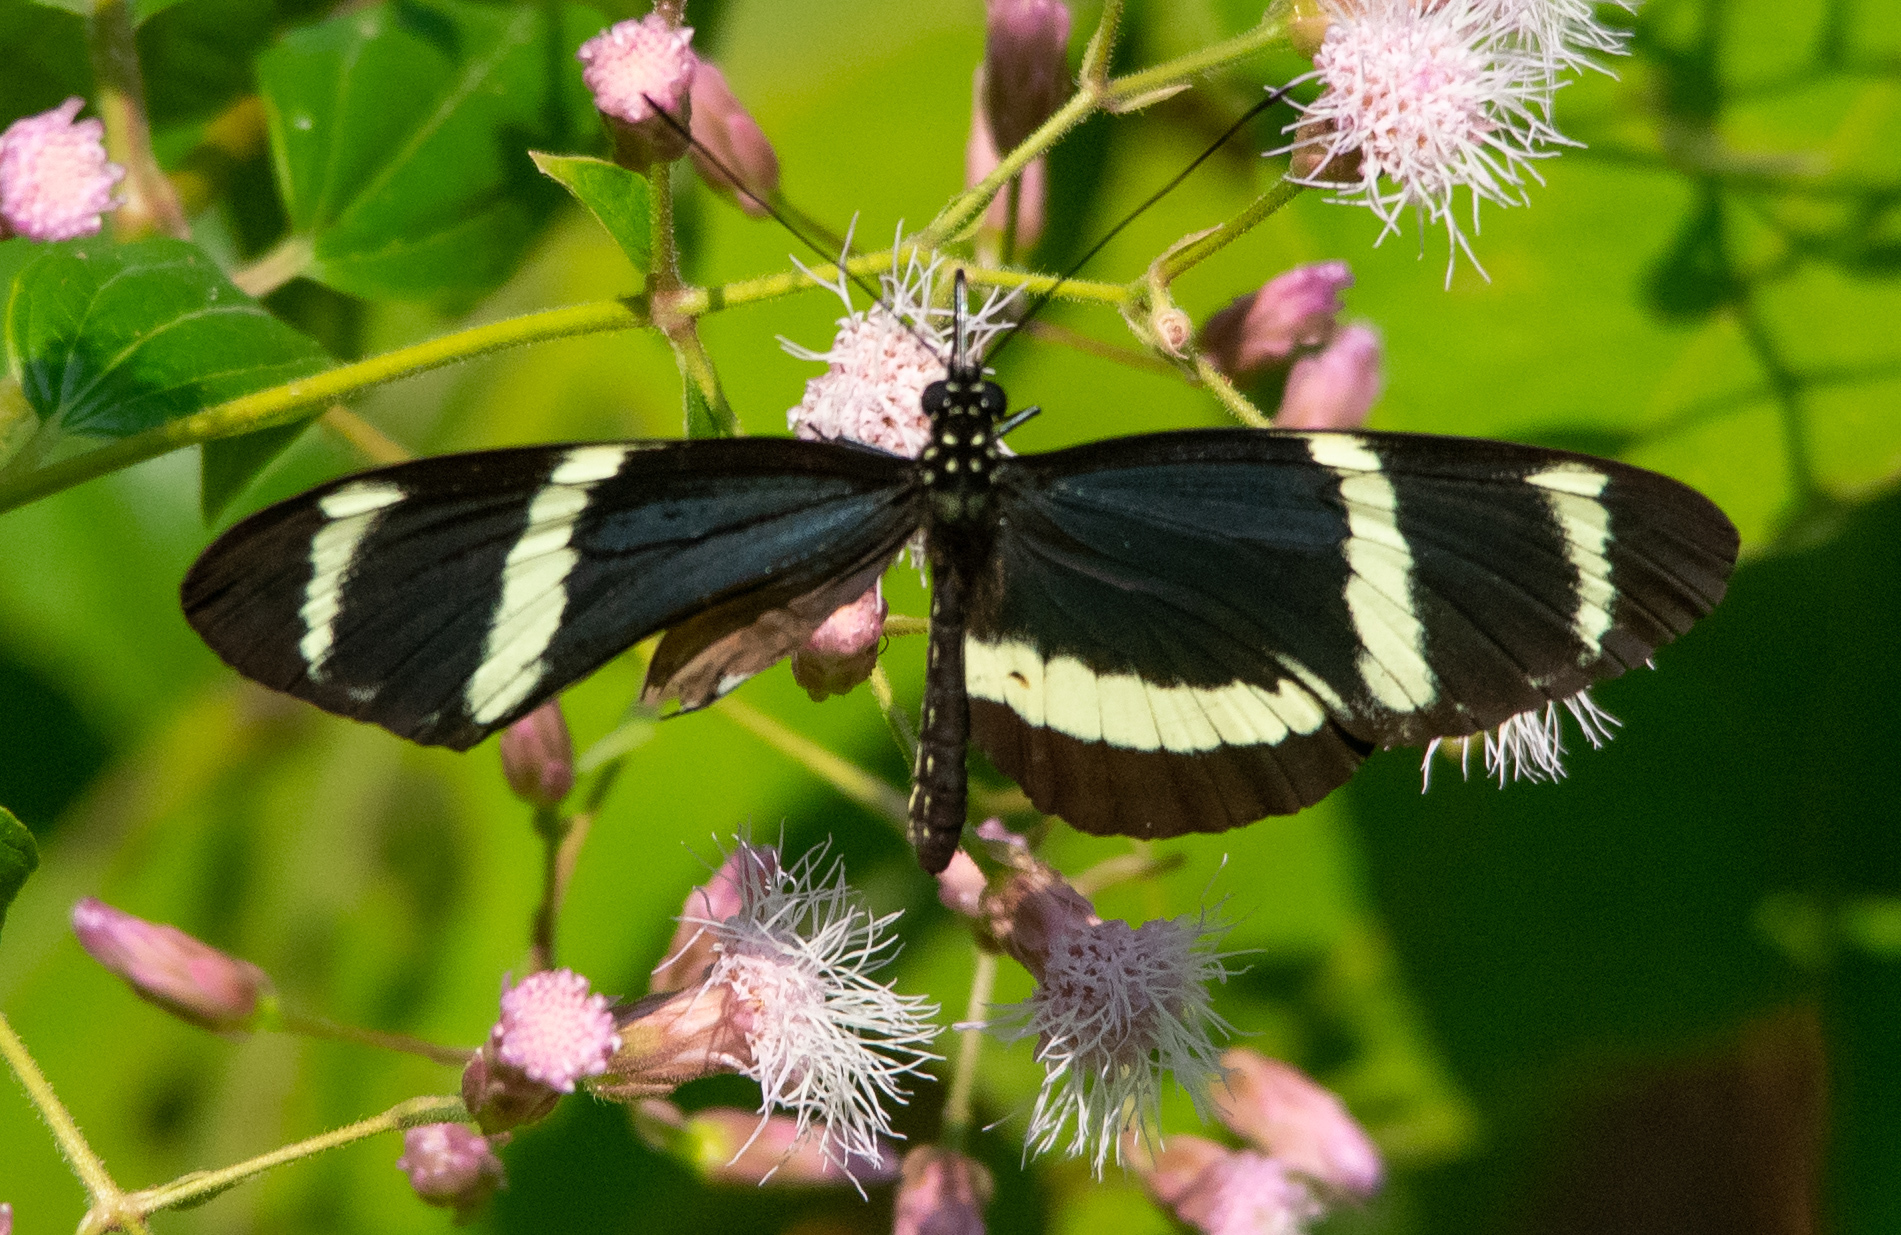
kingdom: Animalia
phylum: Arthropoda
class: Insecta
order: Lepidoptera
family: Nymphalidae
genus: Heliconius
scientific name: Heliconius pachinus
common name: Pachinus longwing
